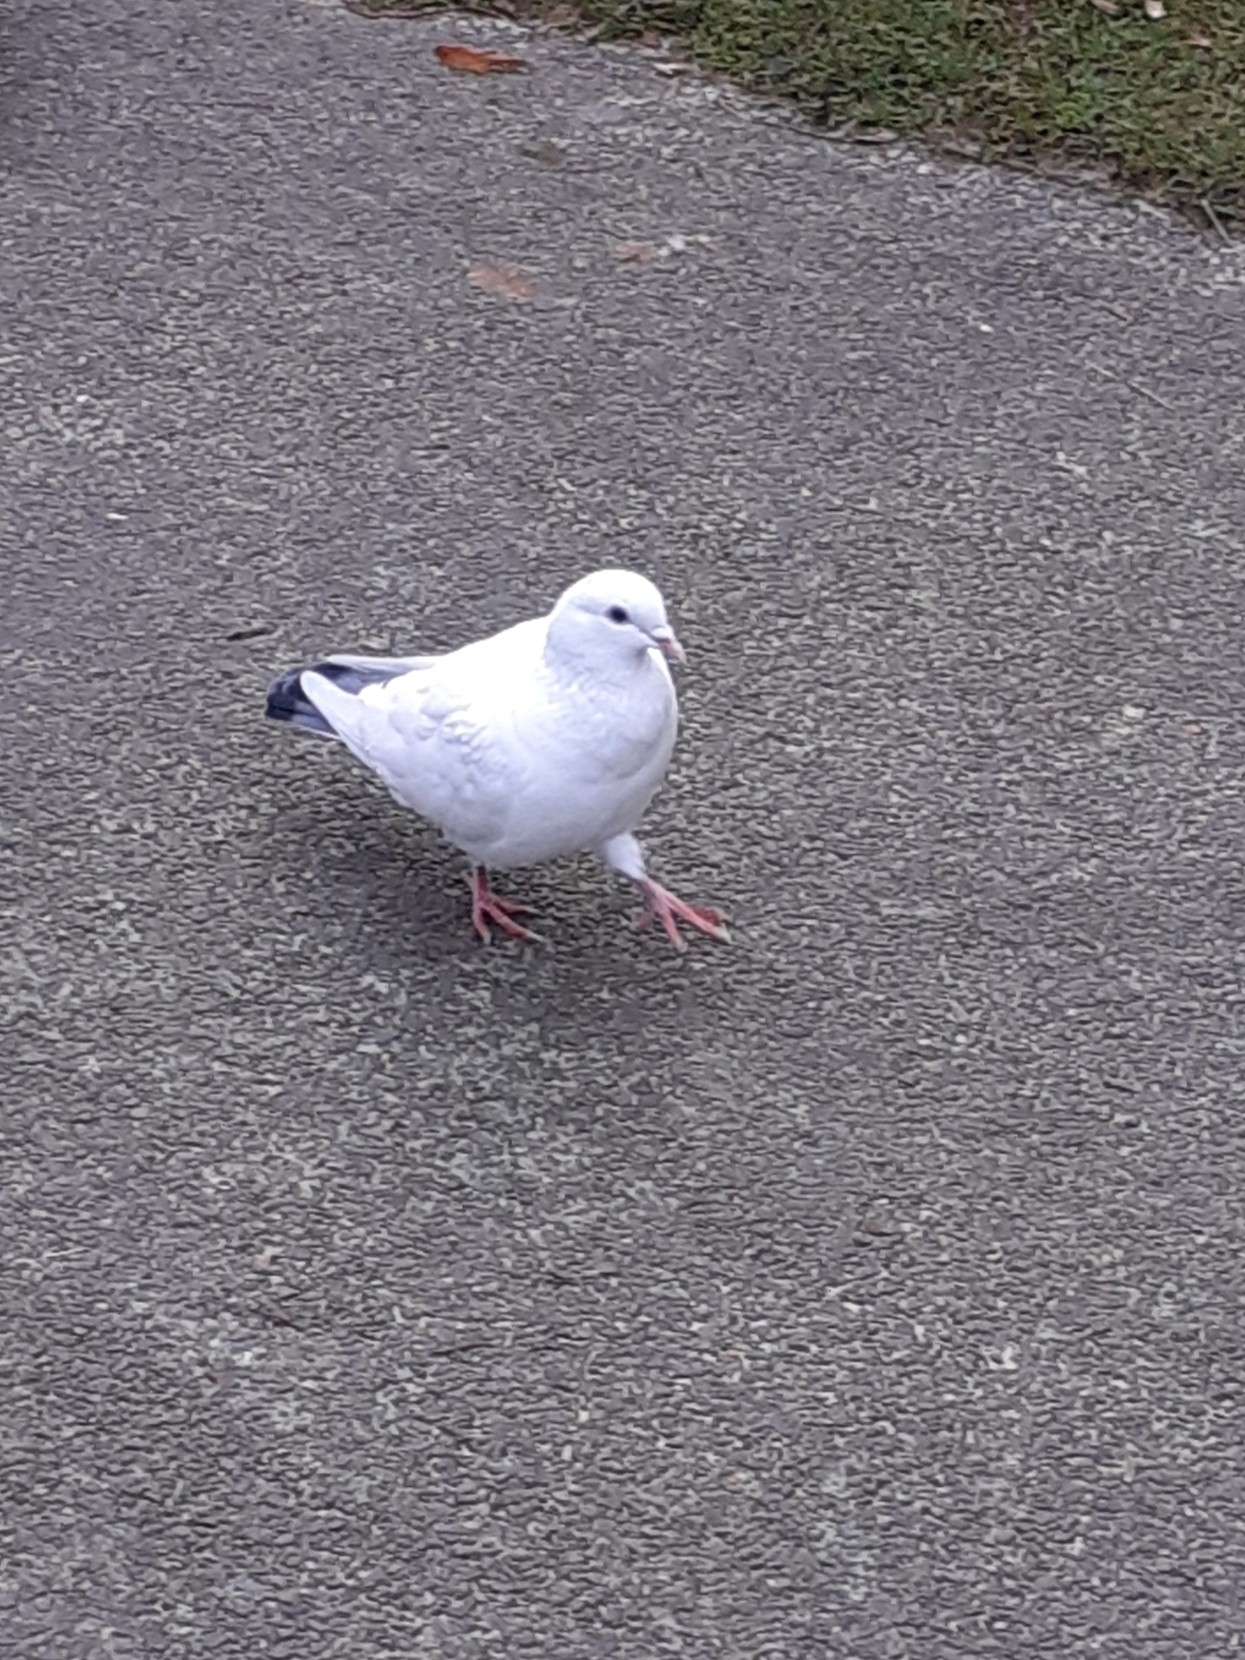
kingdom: Animalia
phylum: Chordata
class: Aves
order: Columbiformes
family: Columbidae
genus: Columba
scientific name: Columba livia
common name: Rock pigeon
